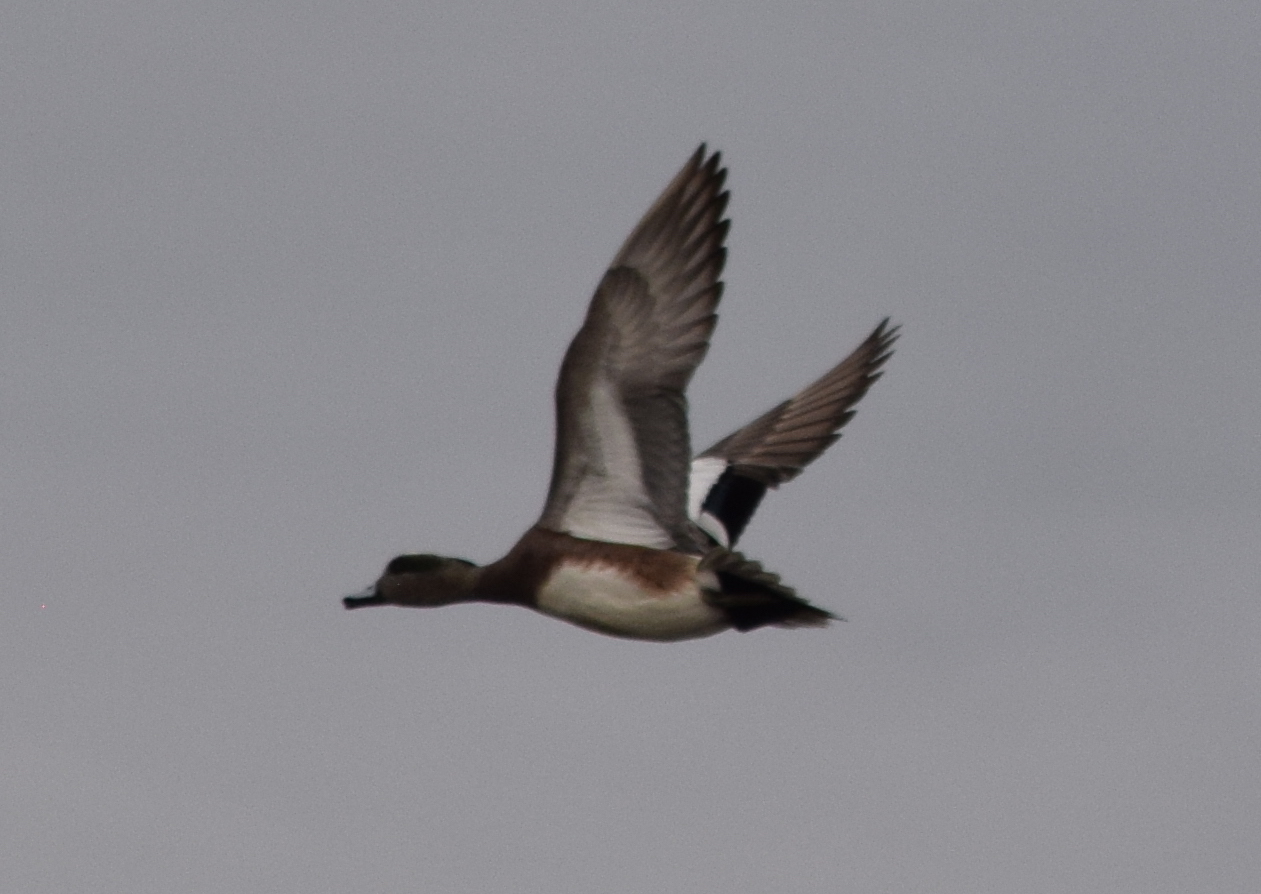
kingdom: Animalia
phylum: Chordata
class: Aves
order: Anseriformes
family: Anatidae
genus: Mareca
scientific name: Mareca americana
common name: American wigeon
